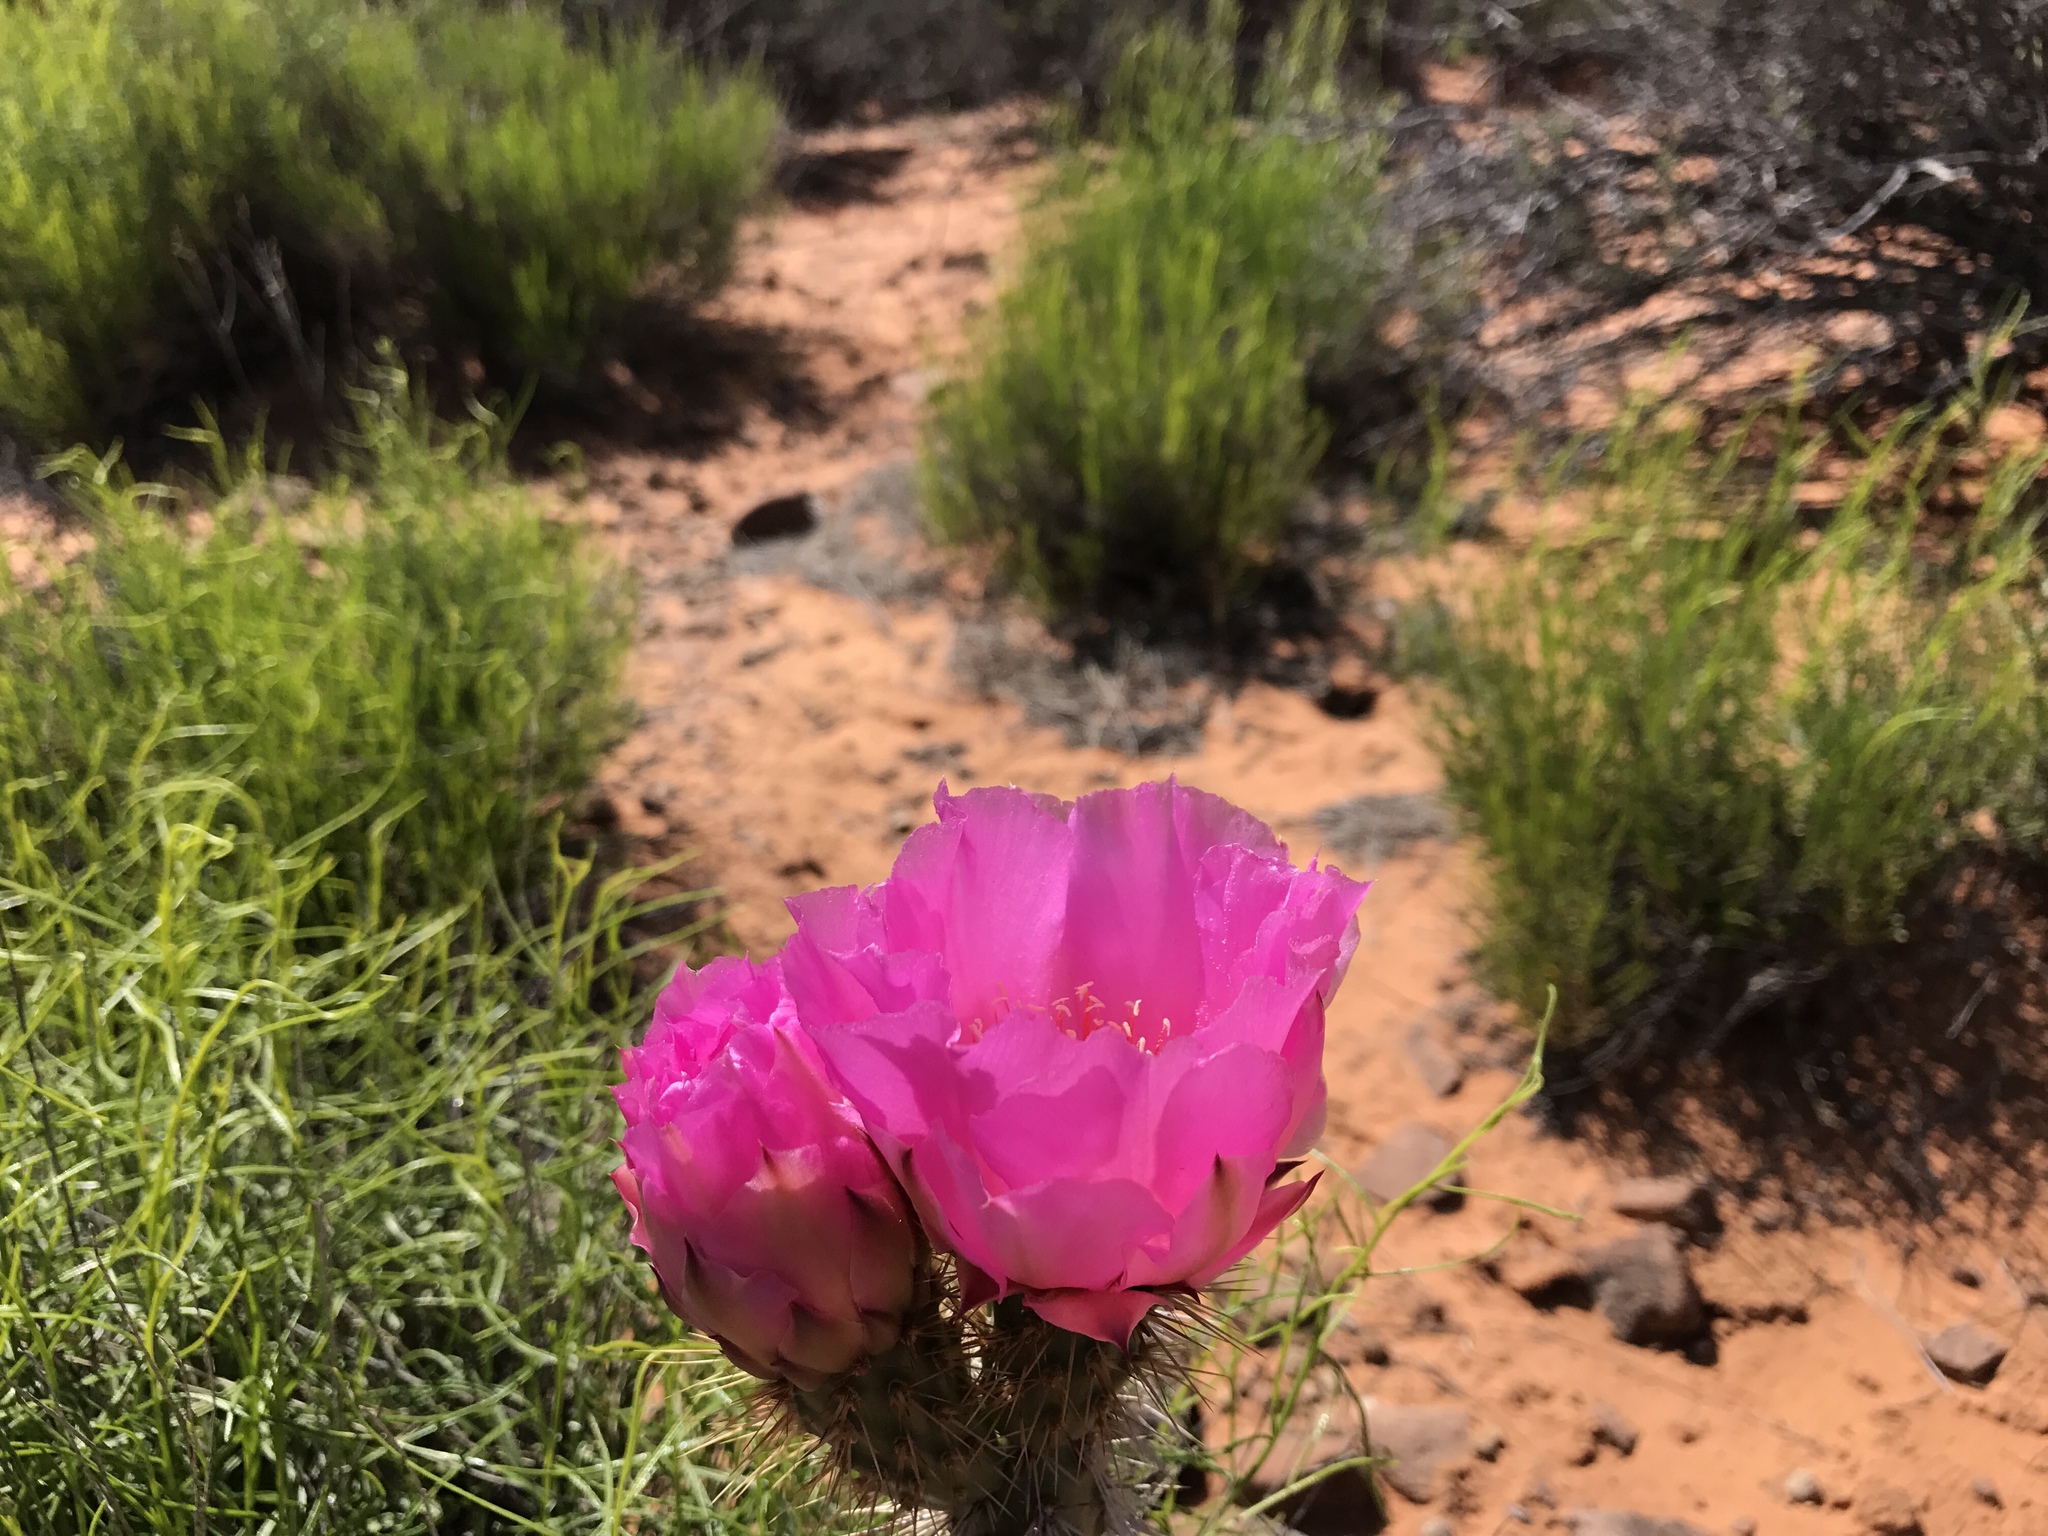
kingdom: Plantae
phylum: Tracheophyta
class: Magnoliopsida
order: Caryophyllales
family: Cactaceae
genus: Opuntia
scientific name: Opuntia polyacantha
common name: Plains prickly-pear
